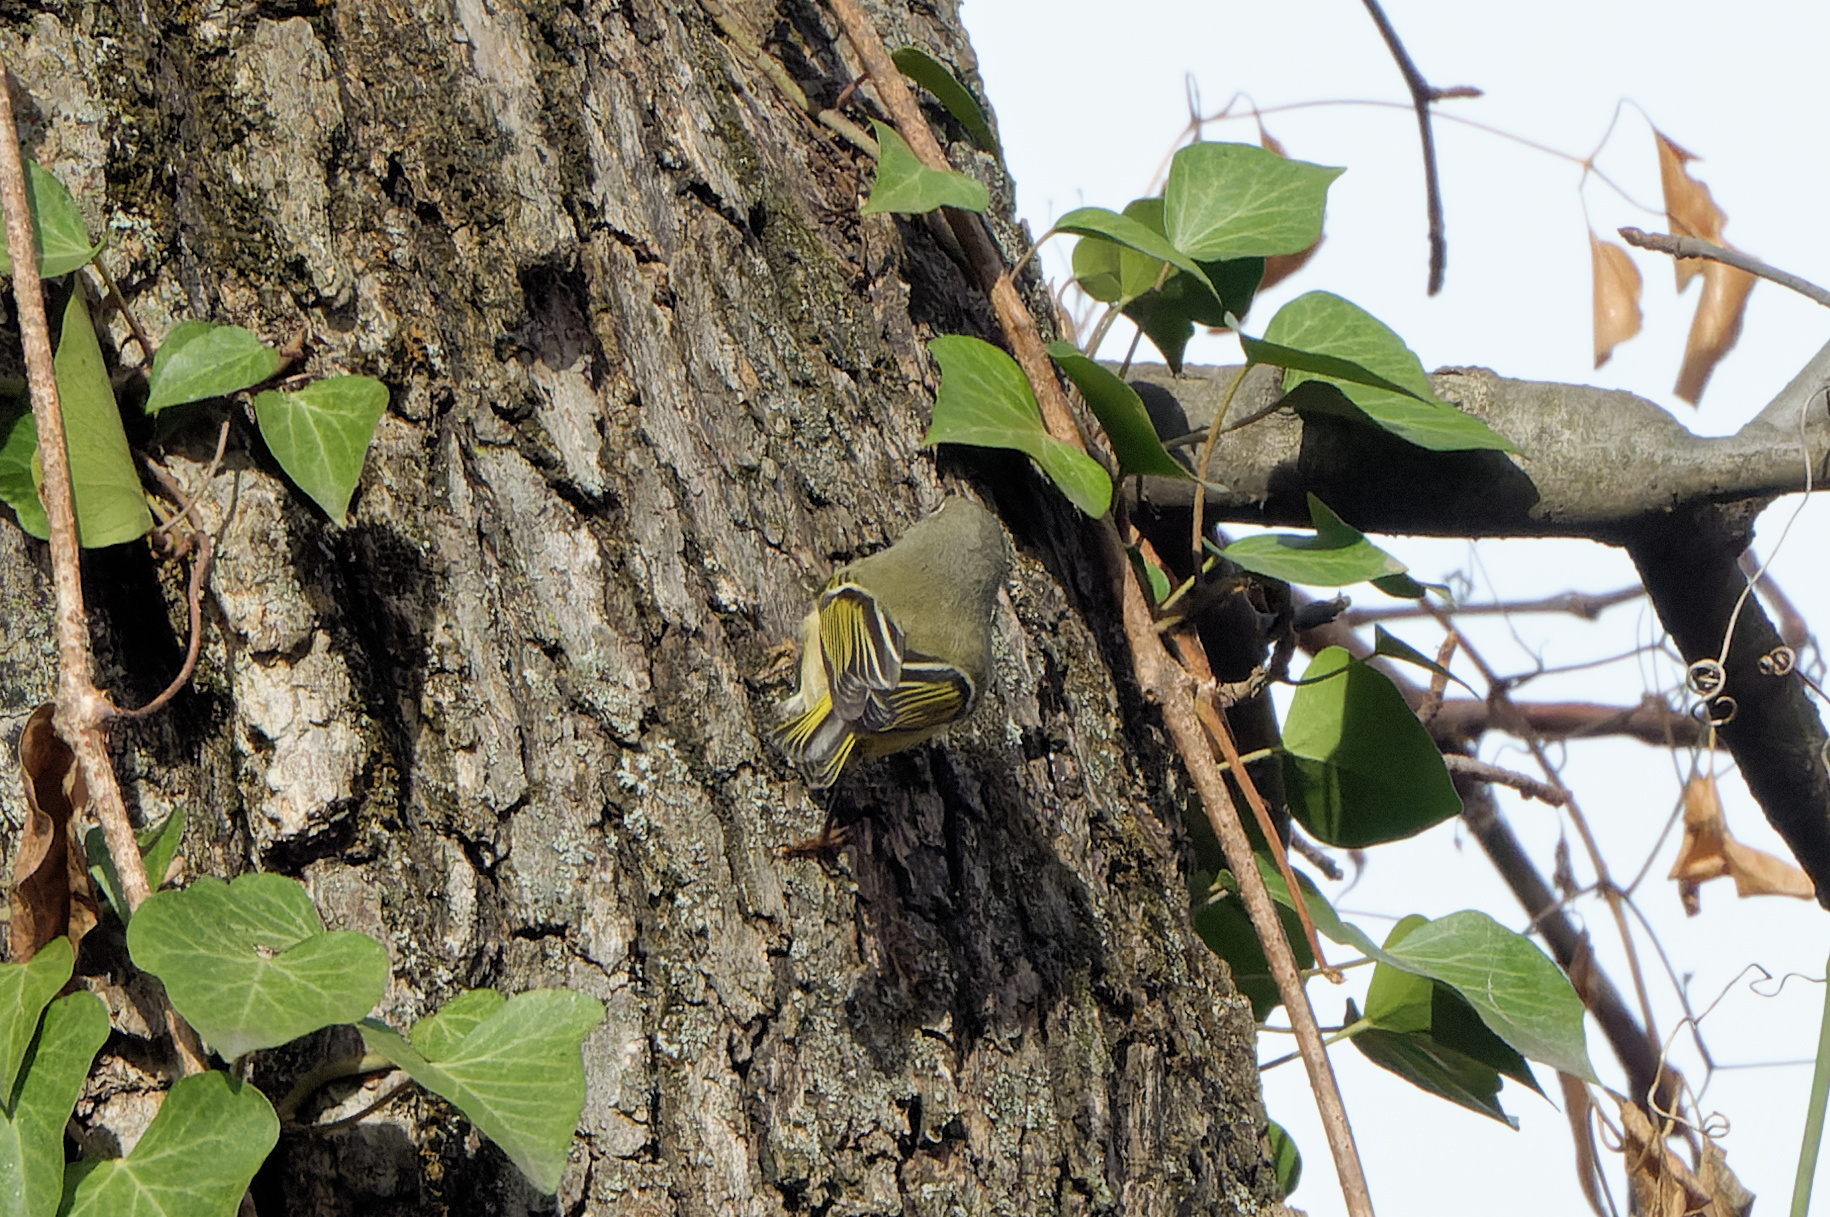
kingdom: Animalia
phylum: Chordata
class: Aves
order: Passeriformes
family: Regulidae
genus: Regulus
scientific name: Regulus calendula
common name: Ruby-crowned kinglet
